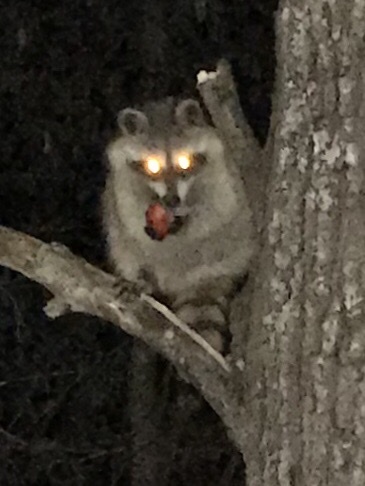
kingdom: Animalia
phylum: Chordata
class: Mammalia
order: Carnivora
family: Procyonidae
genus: Procyon
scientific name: Procyon lotor
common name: Raccoon
